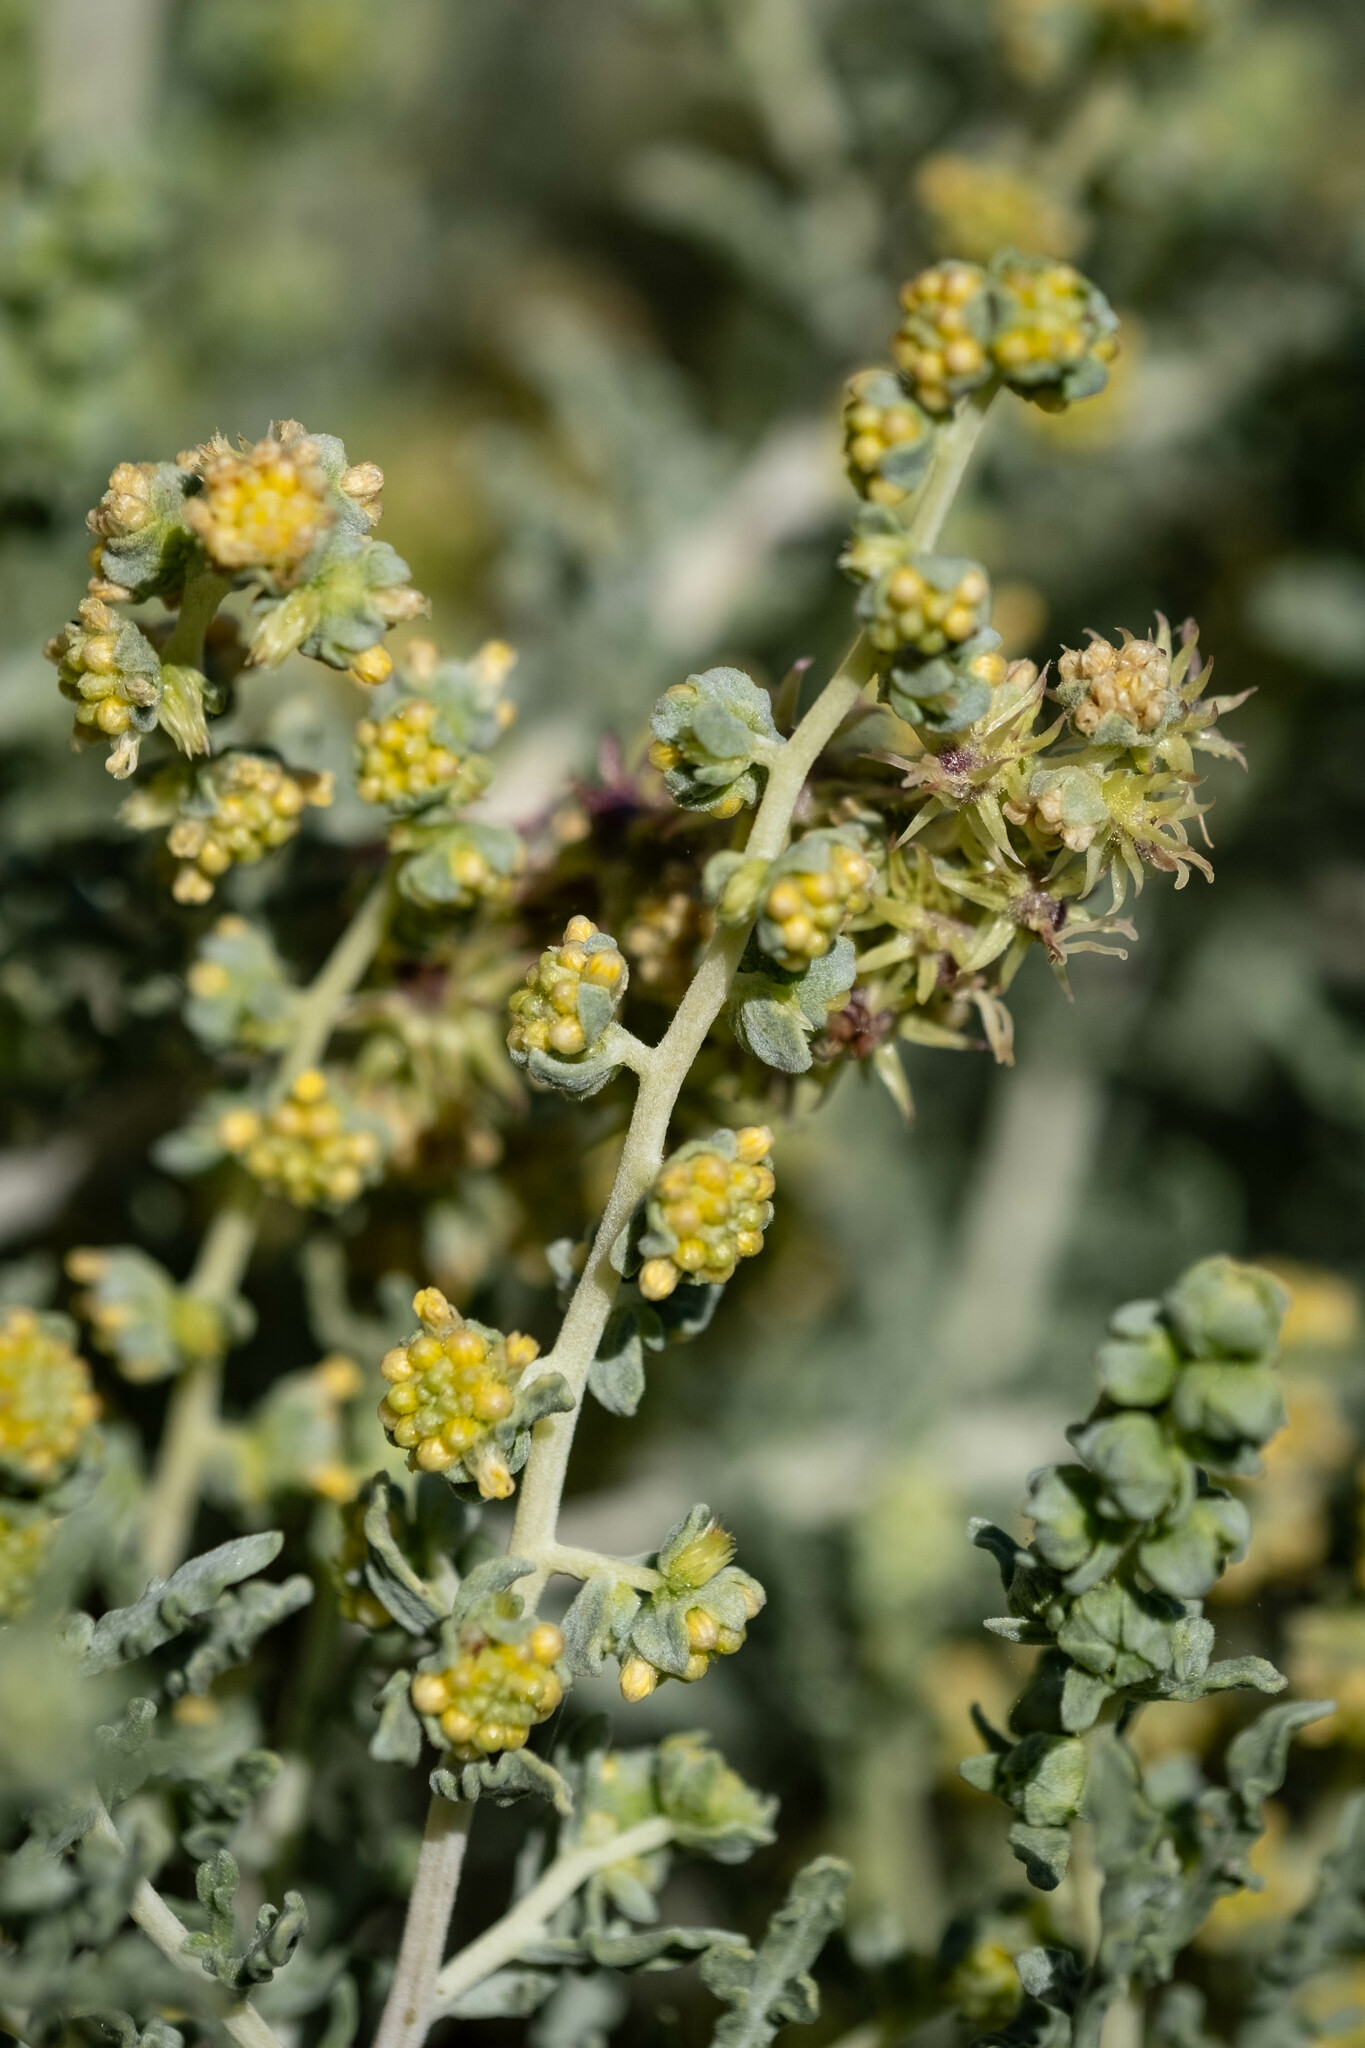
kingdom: Plantae
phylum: Tracheophyta
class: Magnoliopsida
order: Asterales
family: Asteraceae
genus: Ambrosia
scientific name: Ambrosia dumosa
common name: Bur-sage
